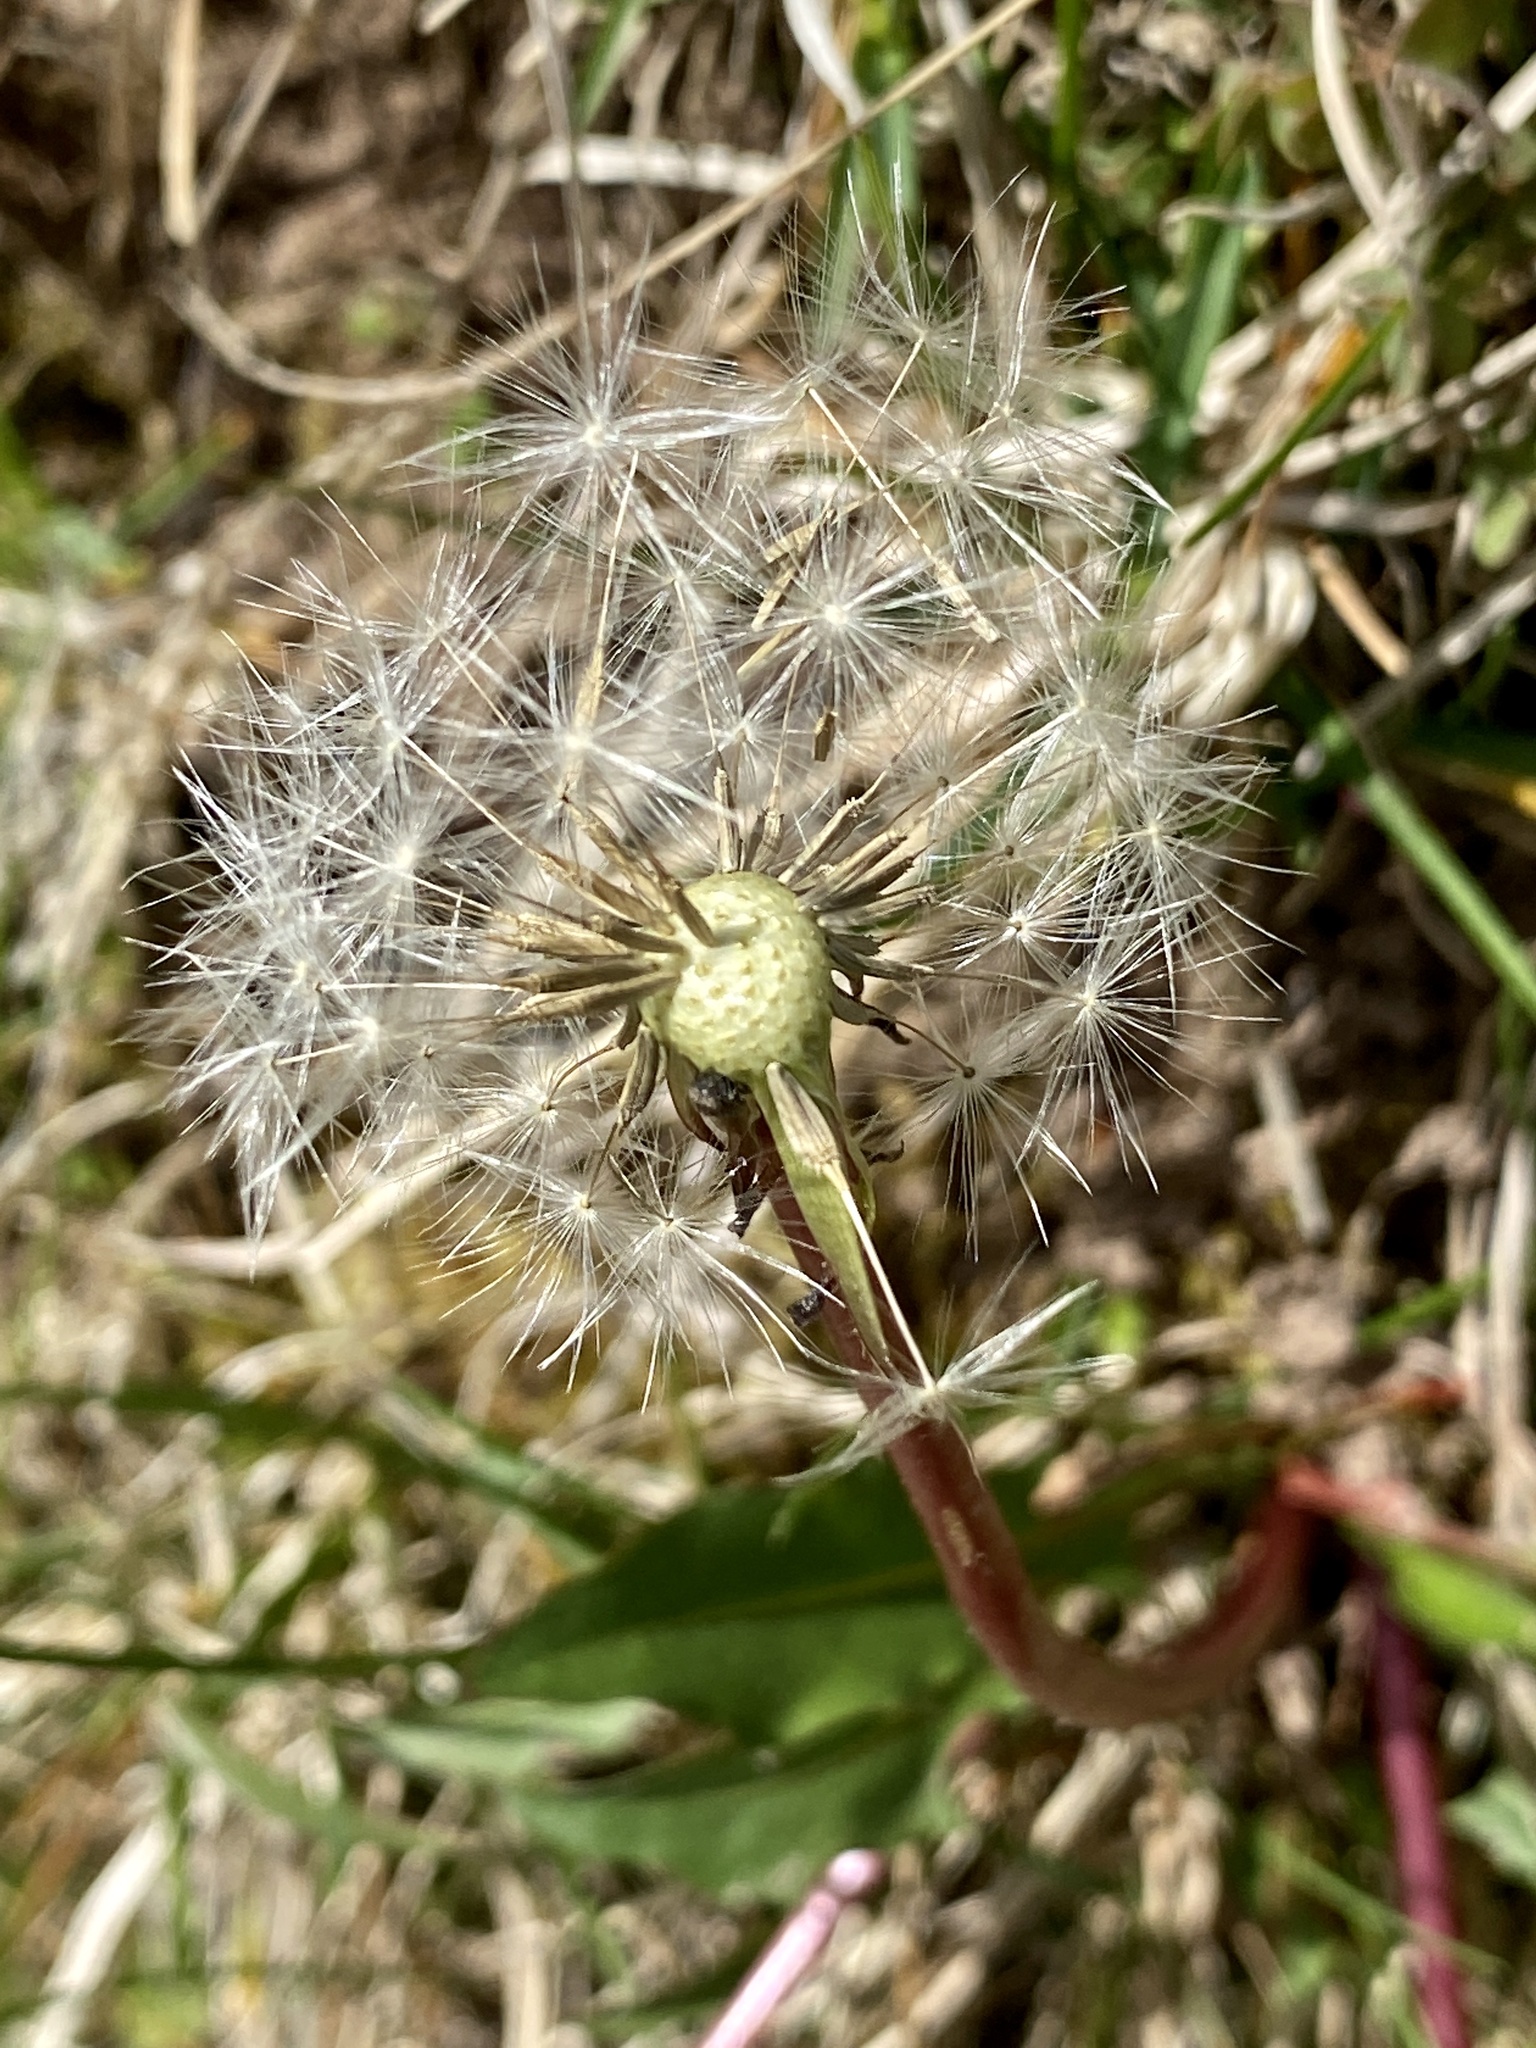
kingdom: Plantae
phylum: Tracheophyta
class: Magnoliopsida
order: Asterales
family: Asteraceae
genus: Taraxacum
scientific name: Taraxacum officinale
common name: Common dandelion
